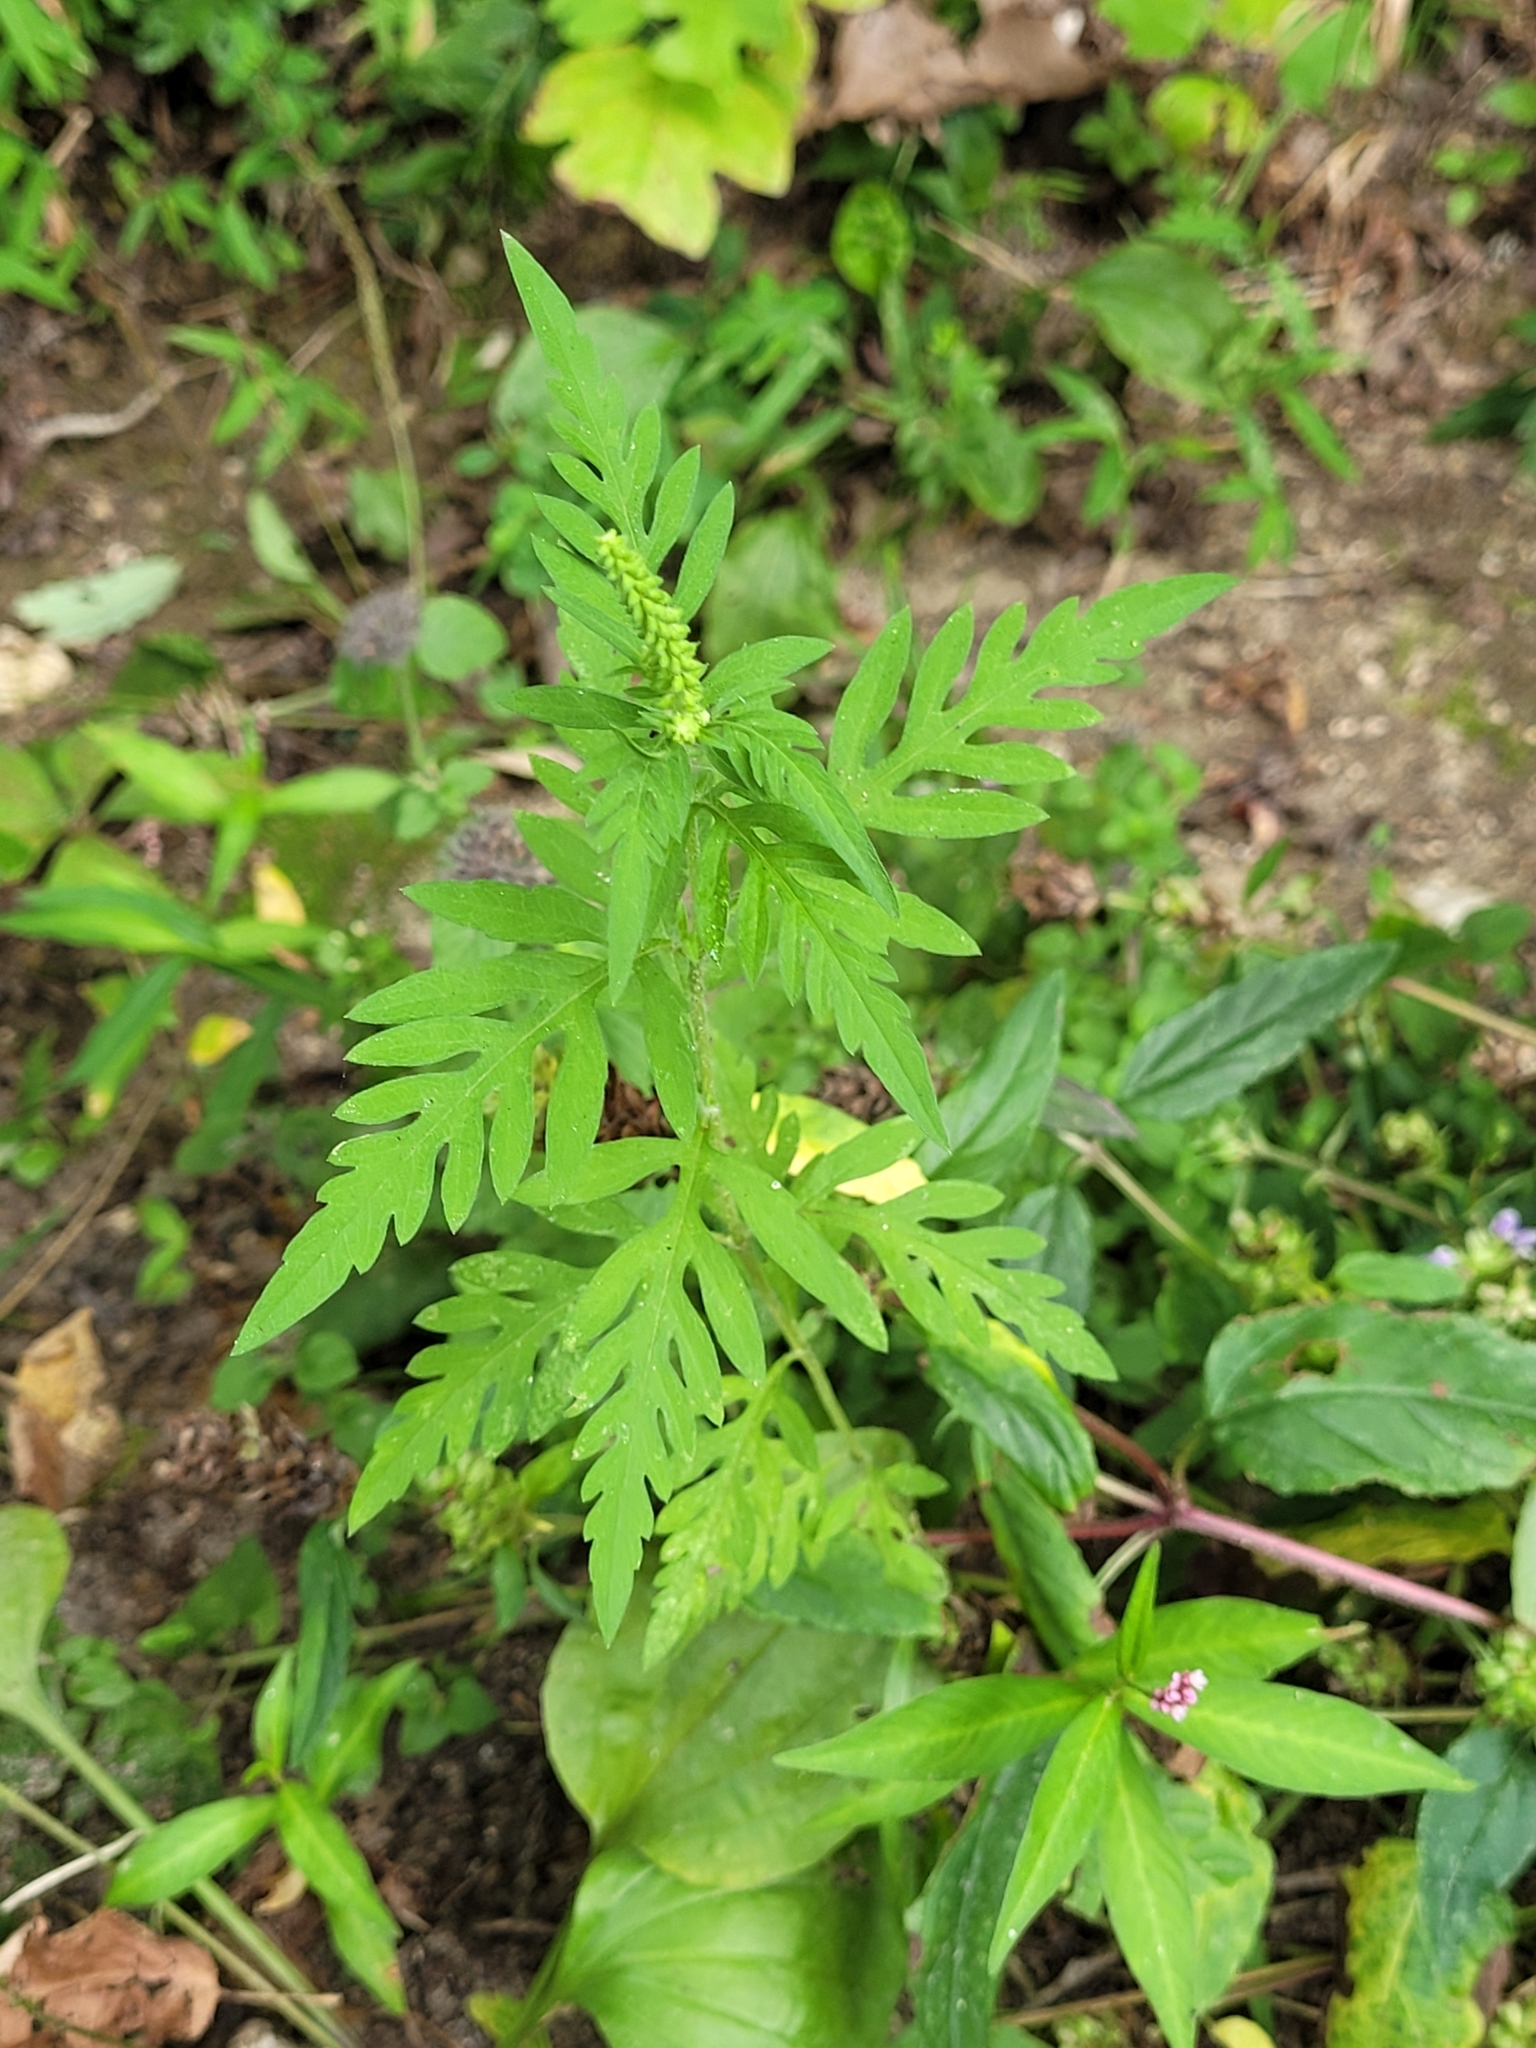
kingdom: Plantae
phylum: Tracheophyta
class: Magnoliopsida
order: Asterales
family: Asteraceae
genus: Ambrosia
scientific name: Ambrosia artemisiifolia
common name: Annual ragweed
